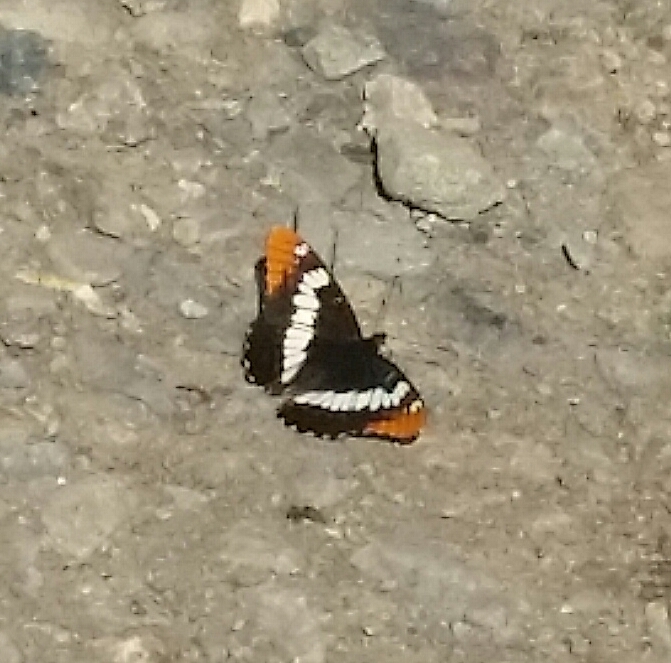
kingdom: Animalia
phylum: Arthropoda
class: Insecta
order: Lepidoptera
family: Nymphalidae
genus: Limenitis
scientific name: Limenitis lorquini
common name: Lorquin's admiral
